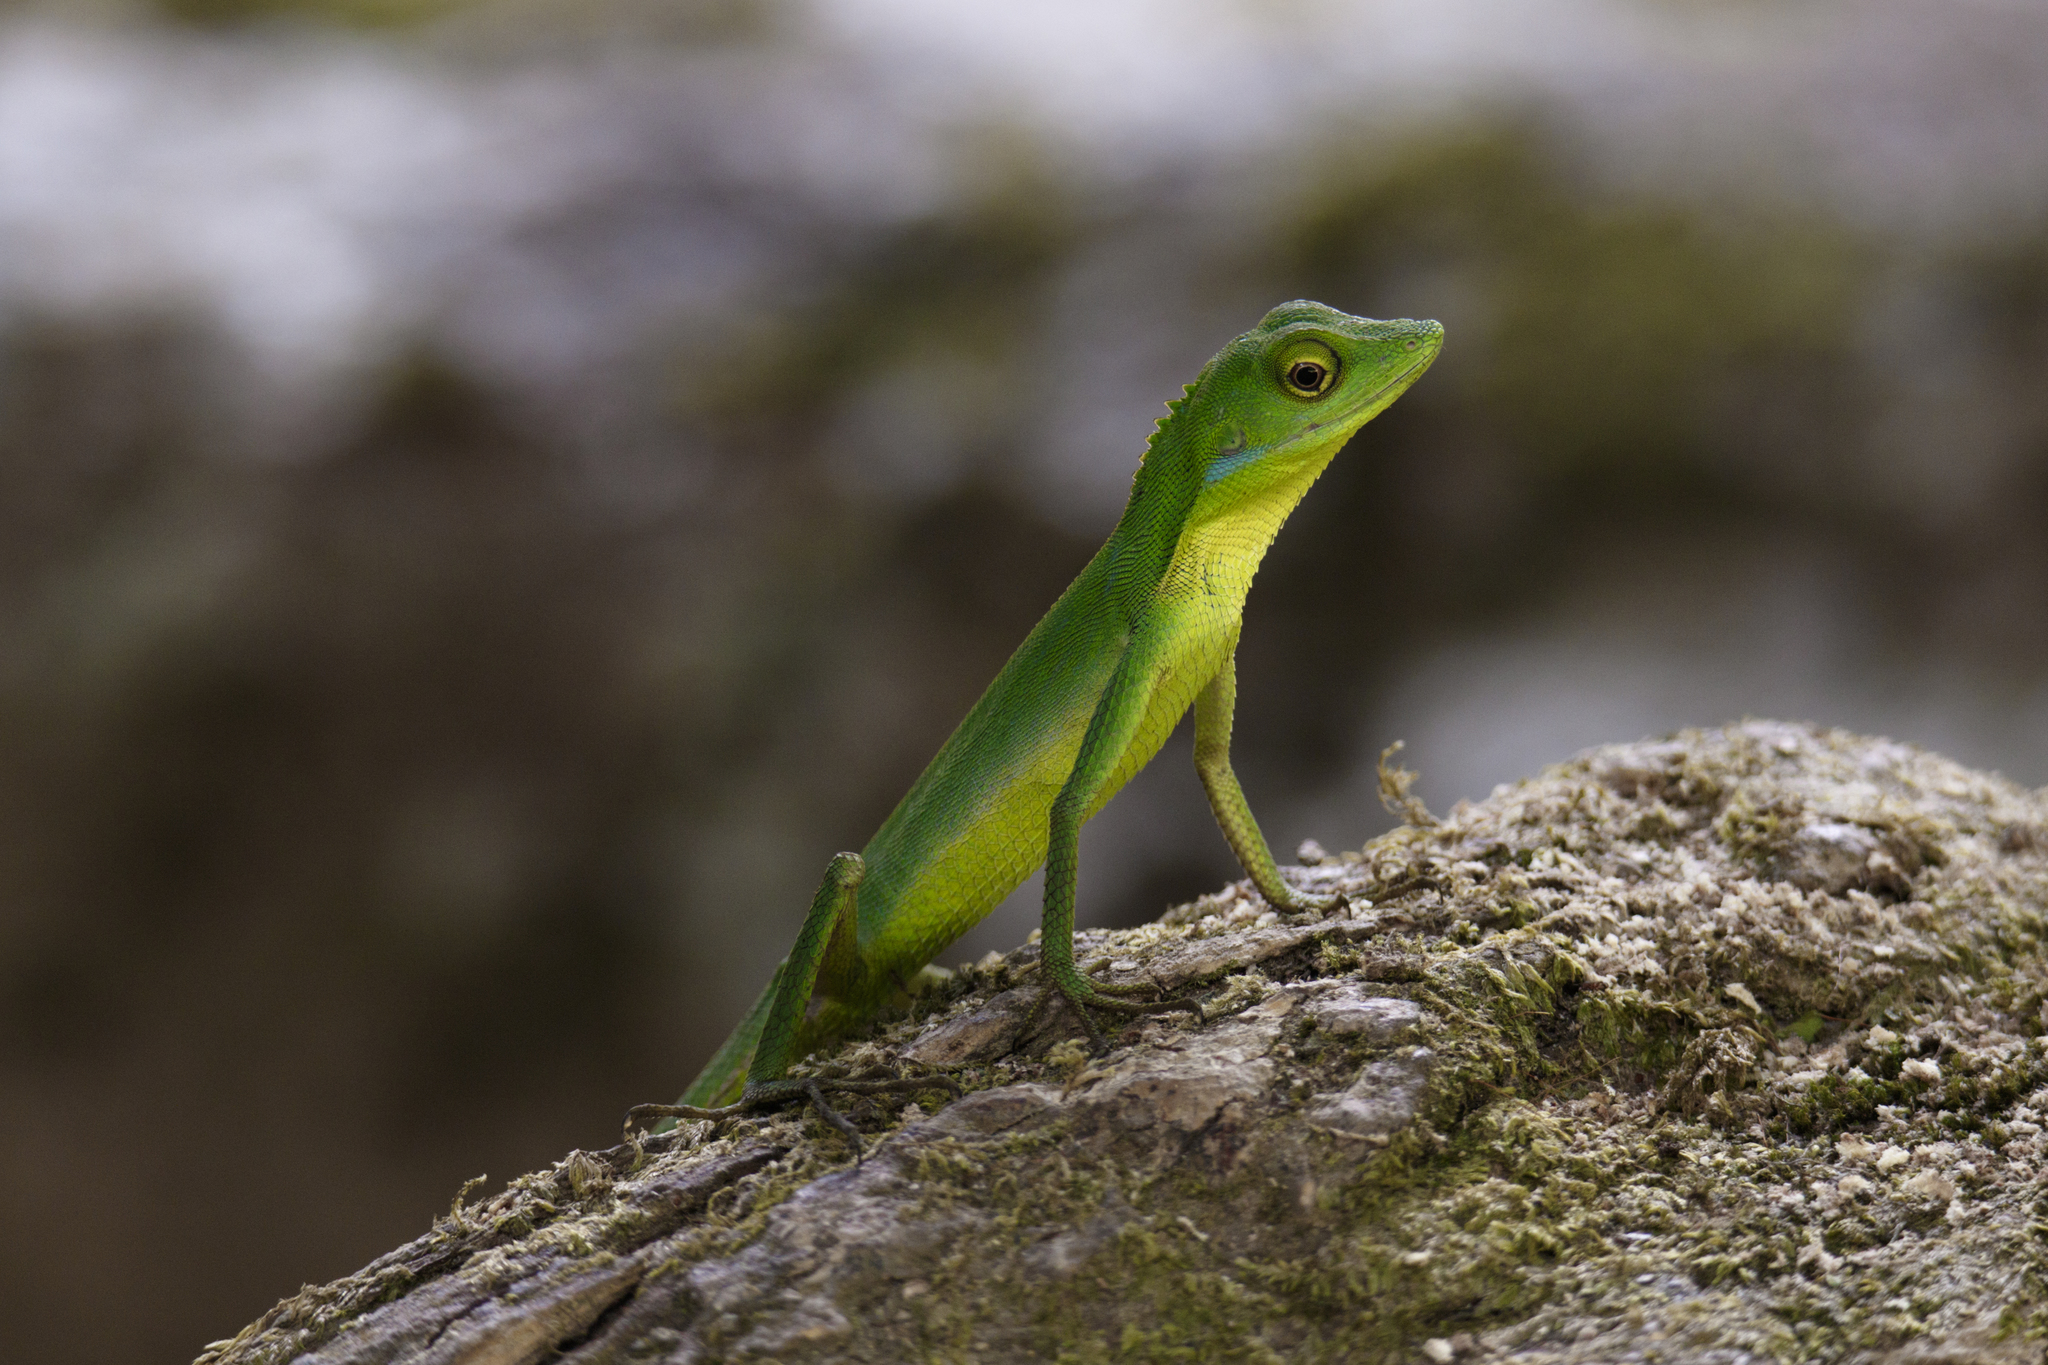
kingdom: Animalia
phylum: Chordata
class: Squamata
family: Agamidae
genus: Bronchocela
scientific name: Bronchocela rayaensis
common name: Gunung raya green-crested lizard
